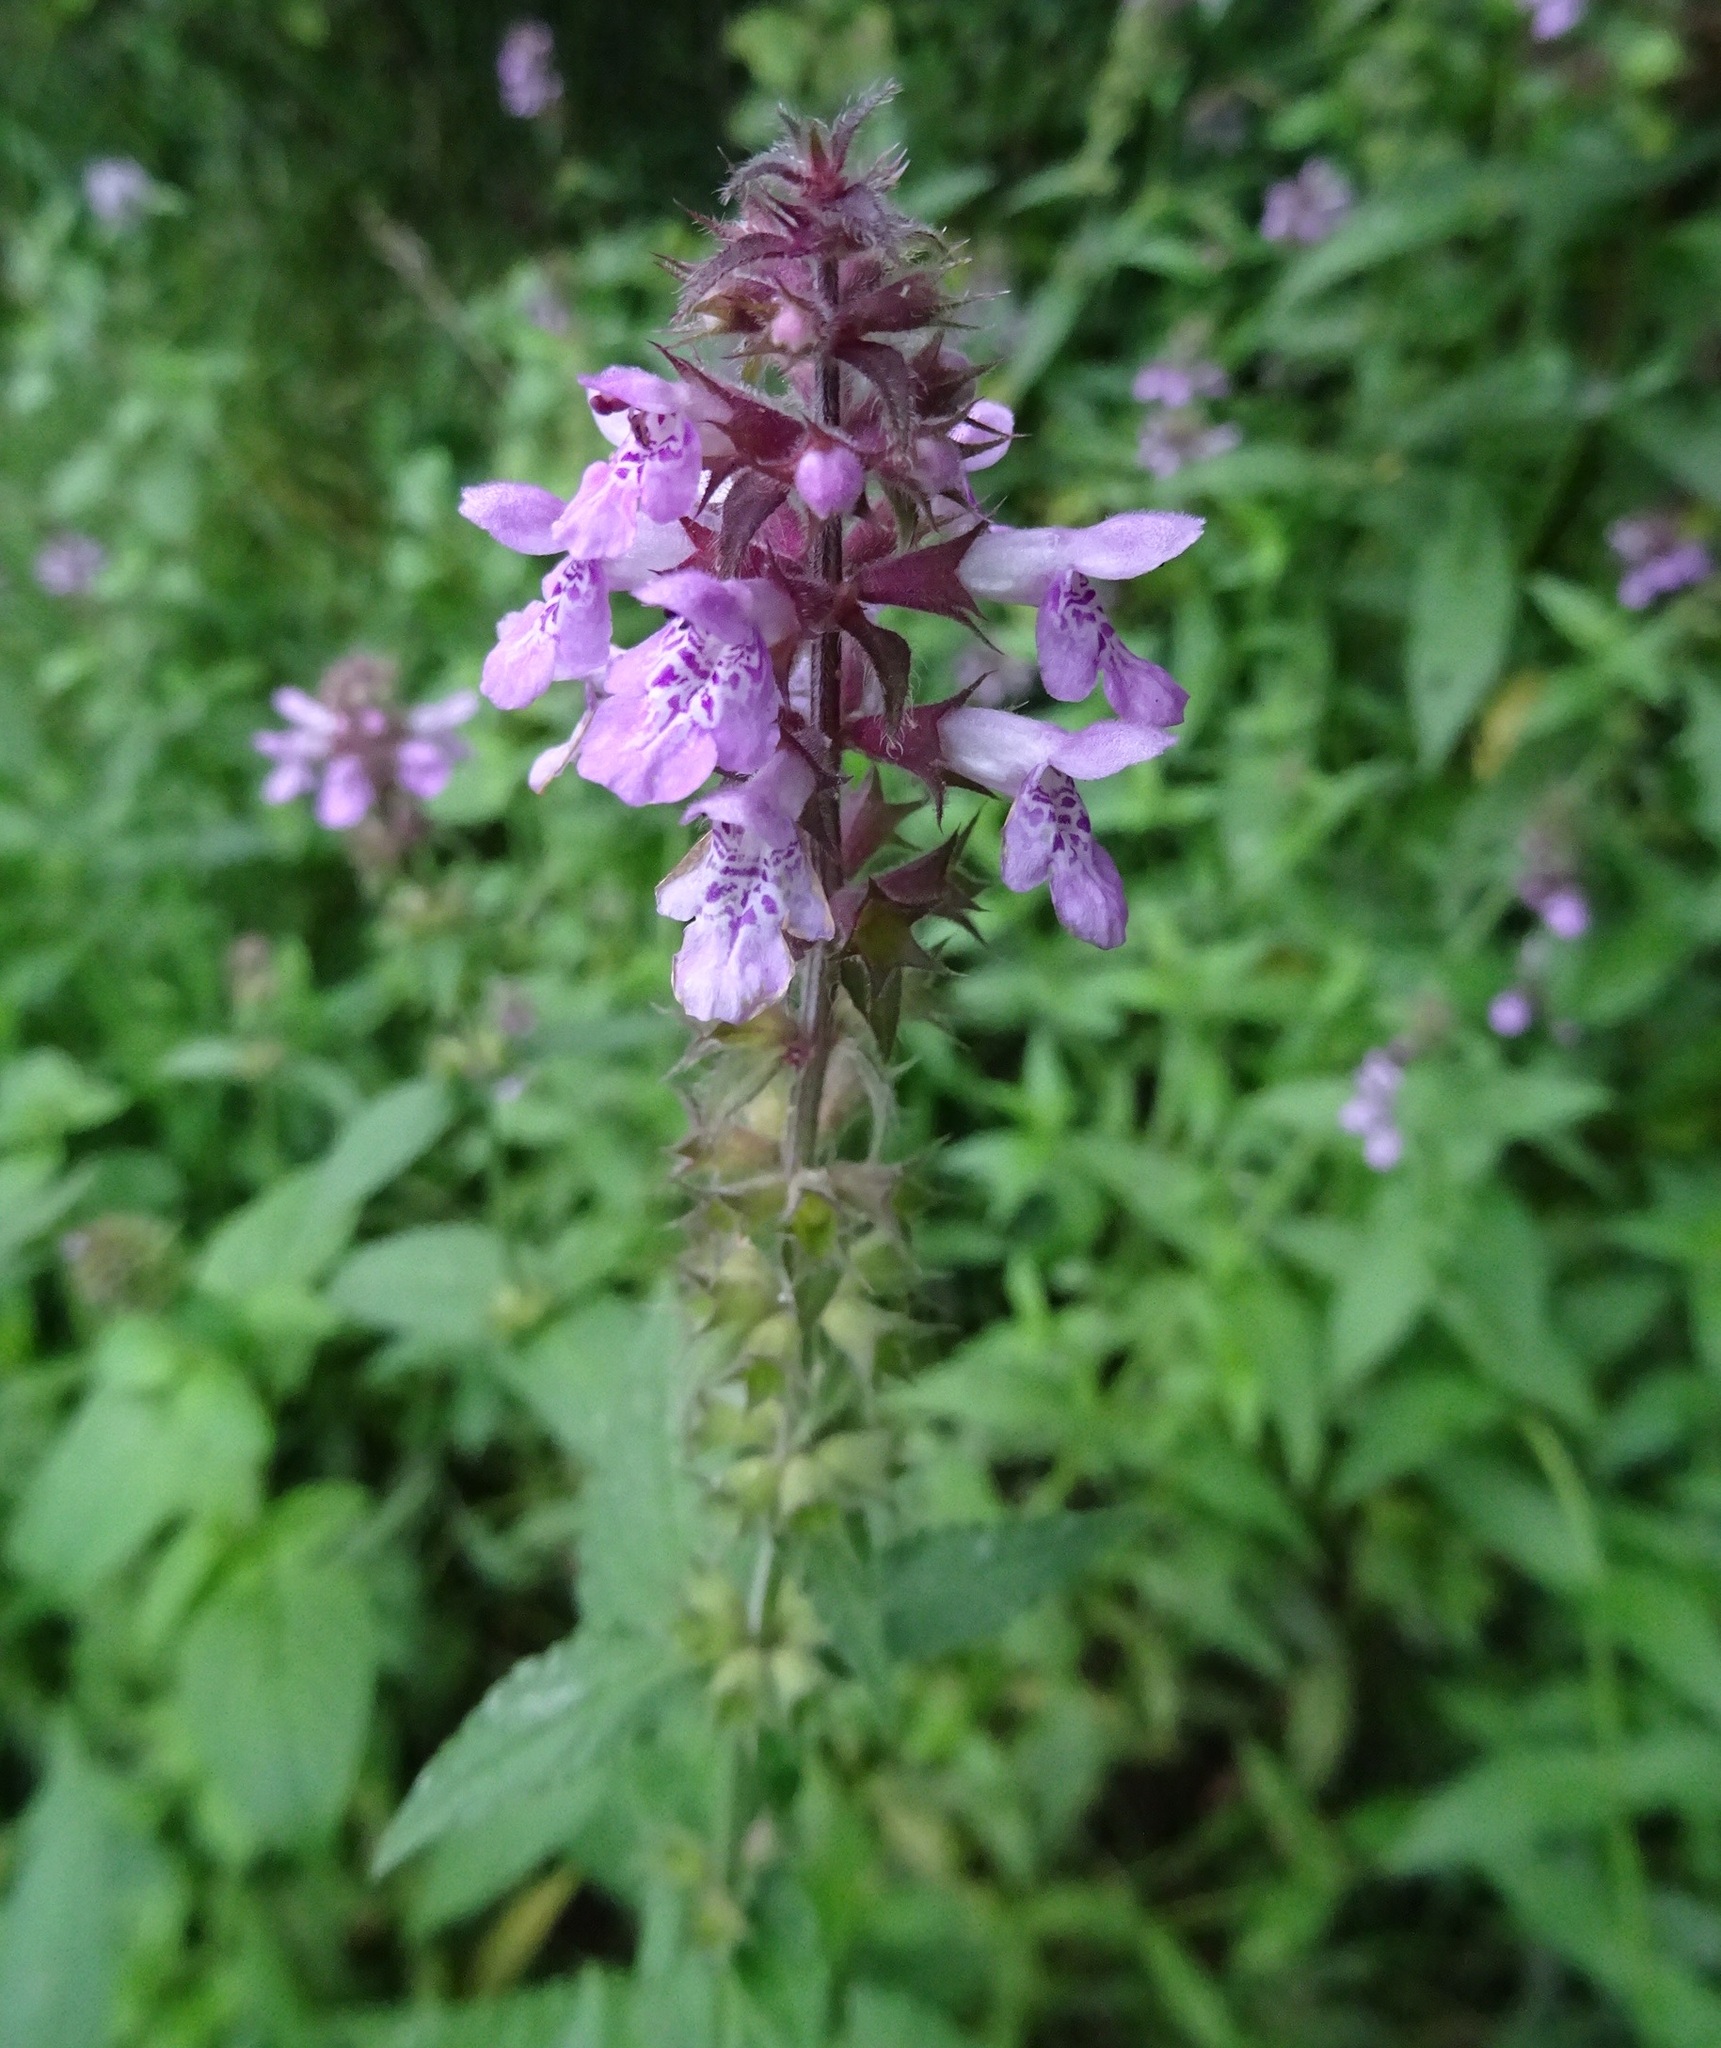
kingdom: Plantae
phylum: Tracheophyta
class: Magnoliopsida
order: Lamiales
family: Lamiaceae
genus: Stachys
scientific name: Stachys palustris
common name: Marsh woundwort
